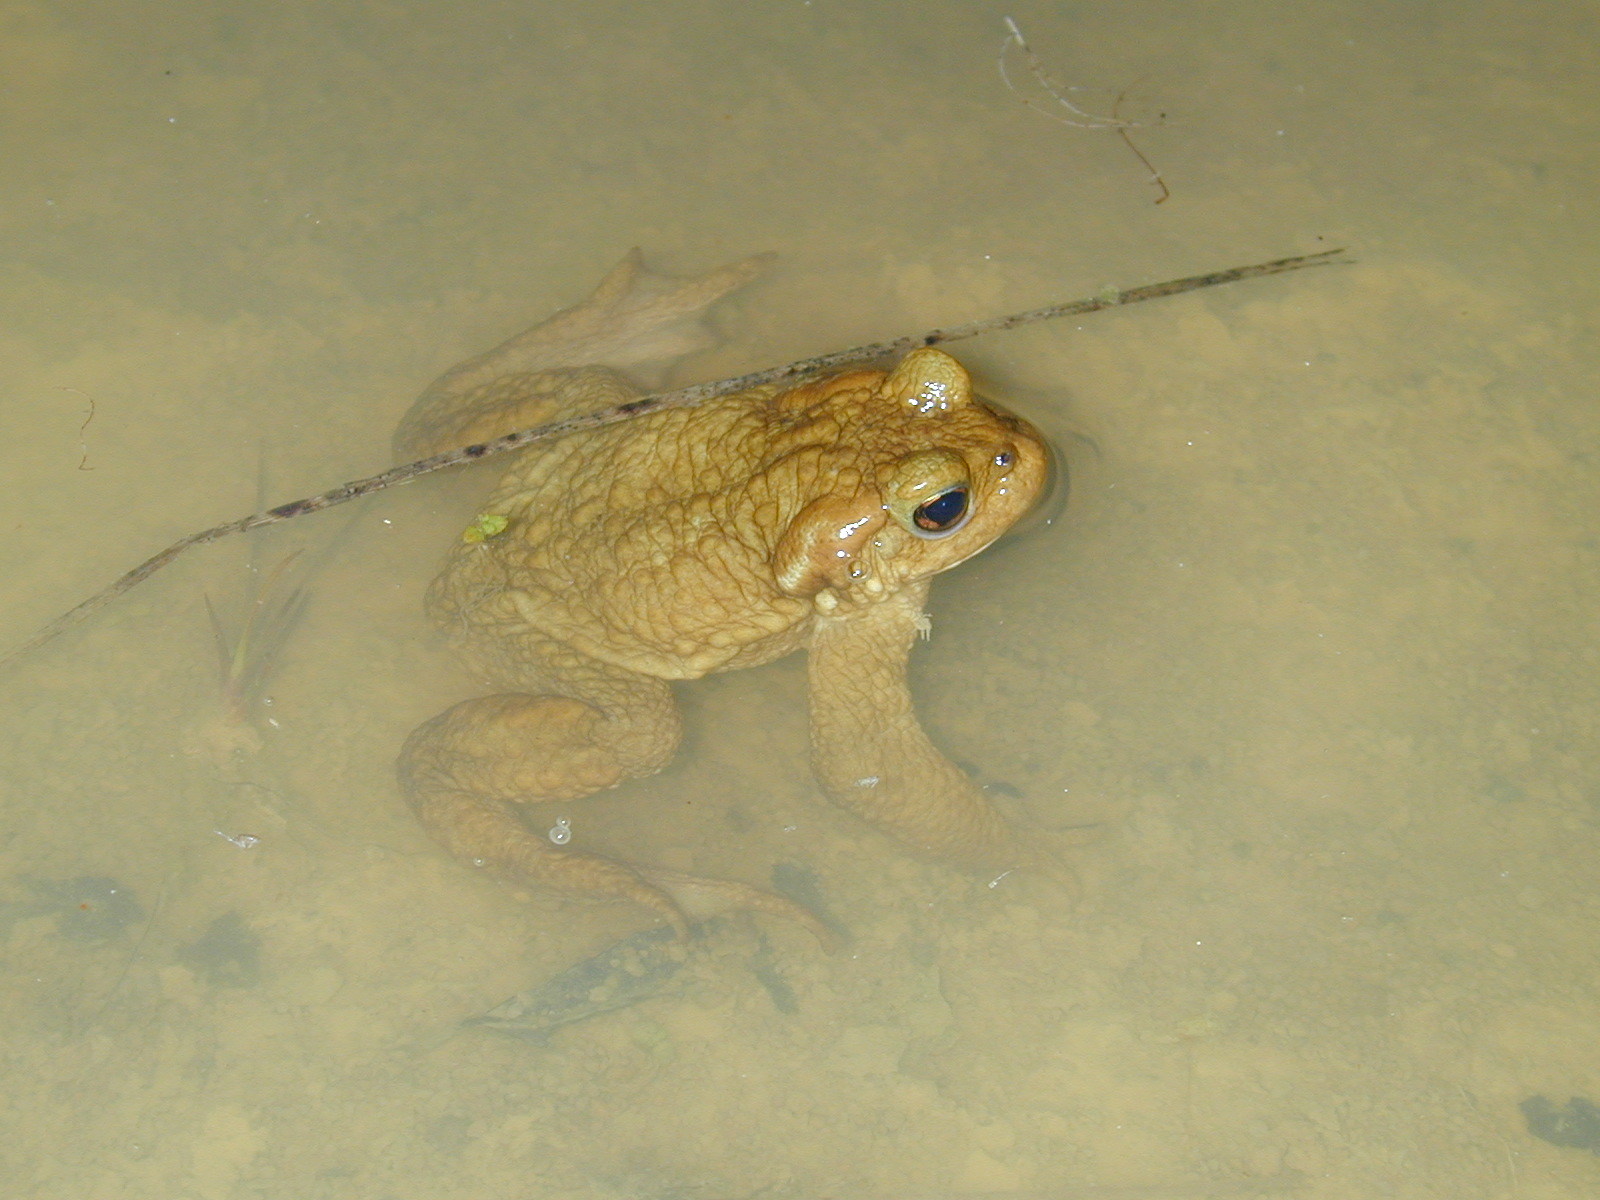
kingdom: Animalia
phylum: Chordata
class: Amphibia
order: Anura
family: Bufonidae
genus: Bufo
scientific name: Bufo spinosus
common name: Western common toad
